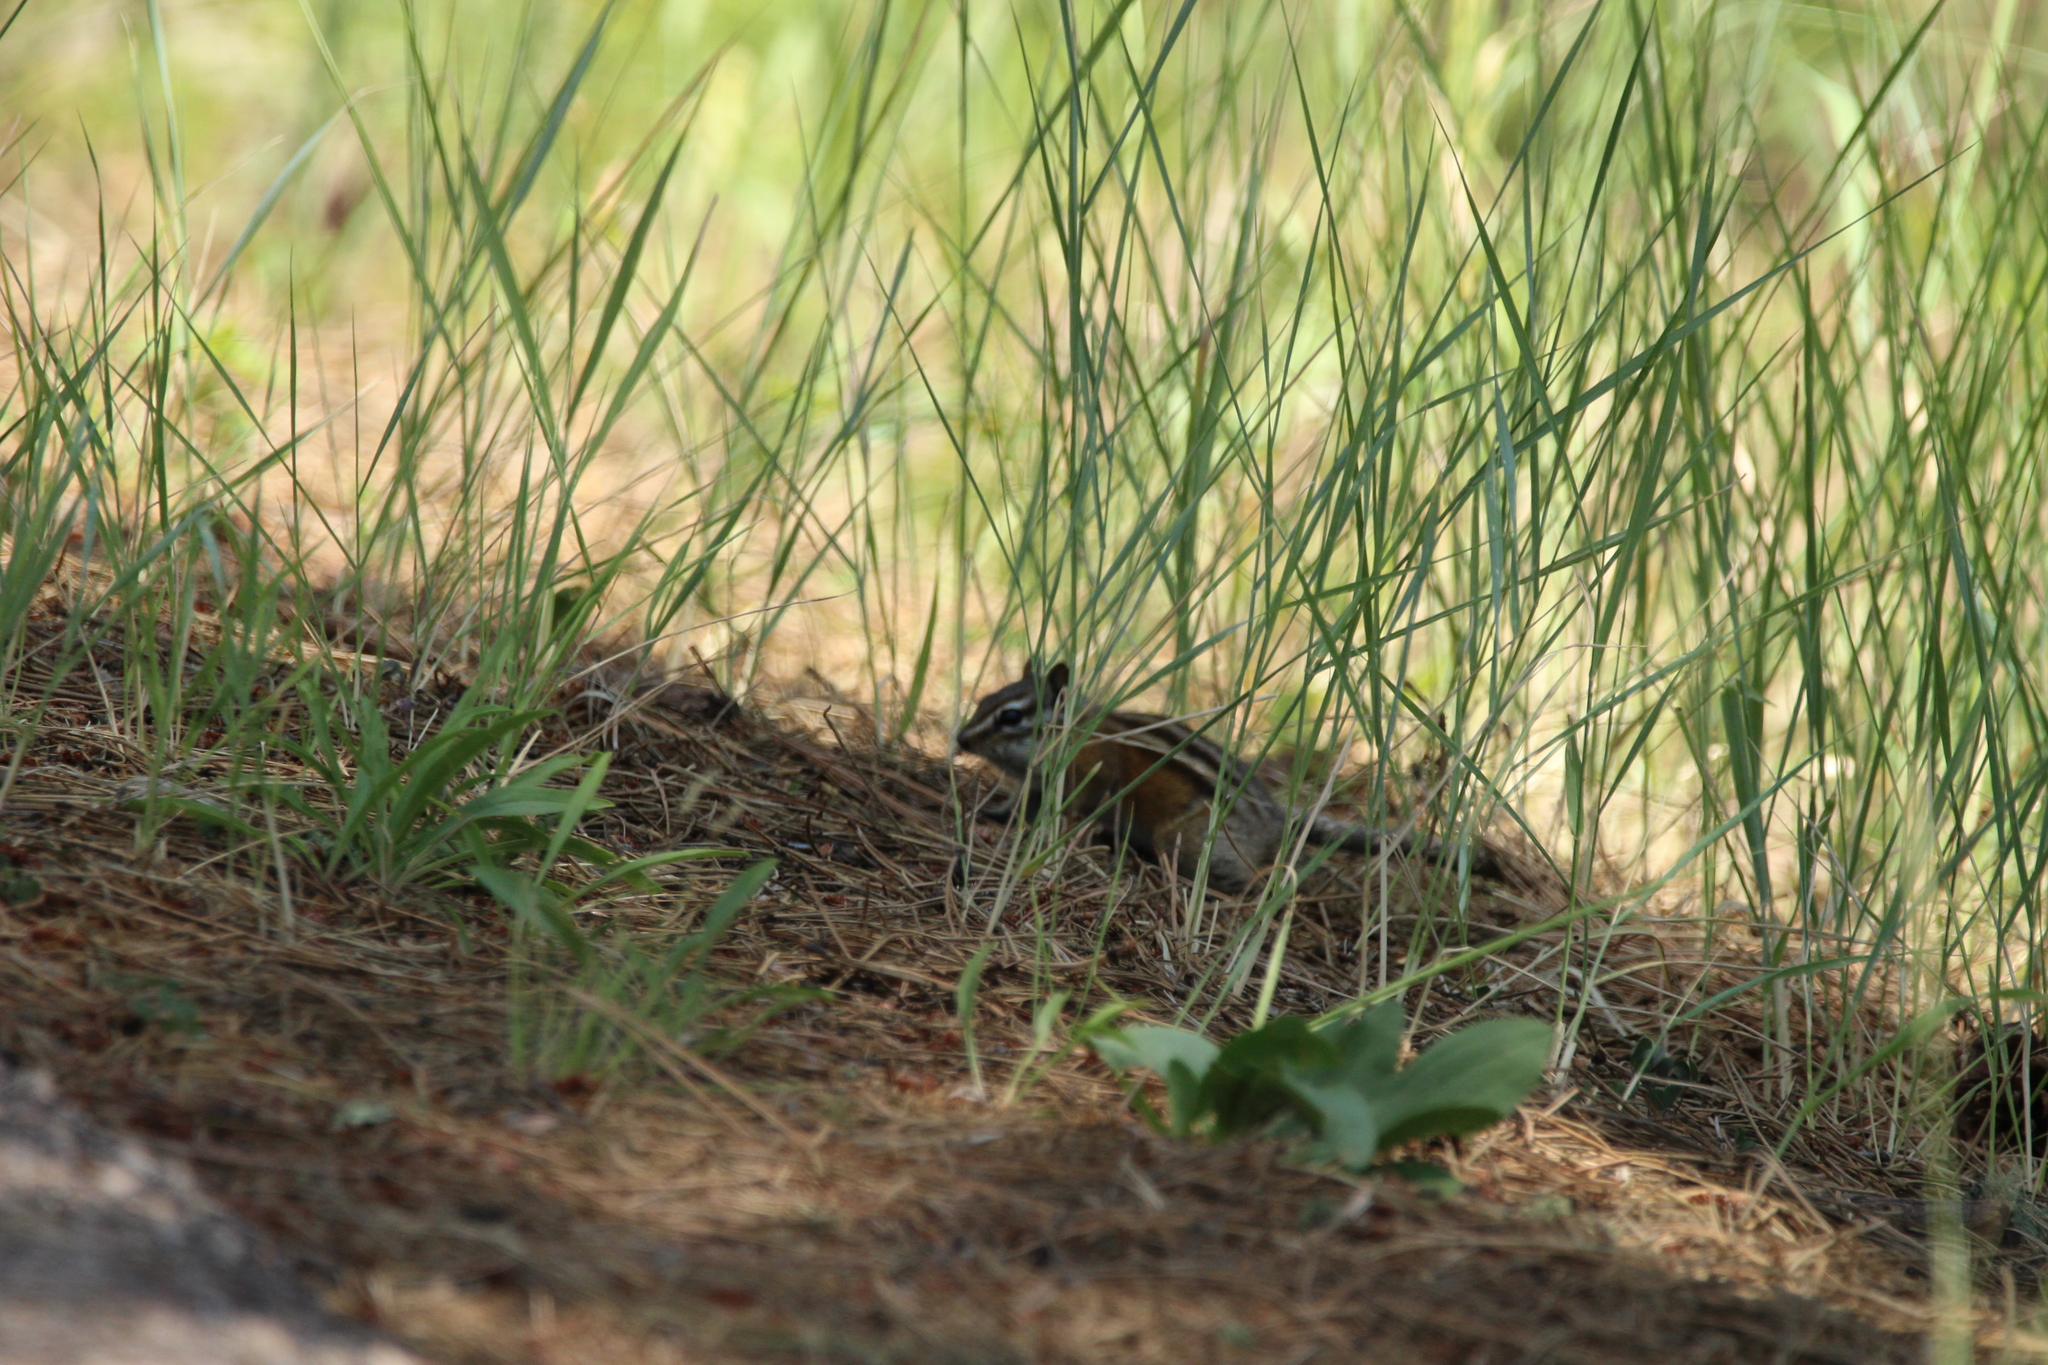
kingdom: Animalia
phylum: Chordata
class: Mammalia
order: Rodentia
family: Sciuridae
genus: Tamias
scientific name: Tamias minimus
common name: Least chipmunk
